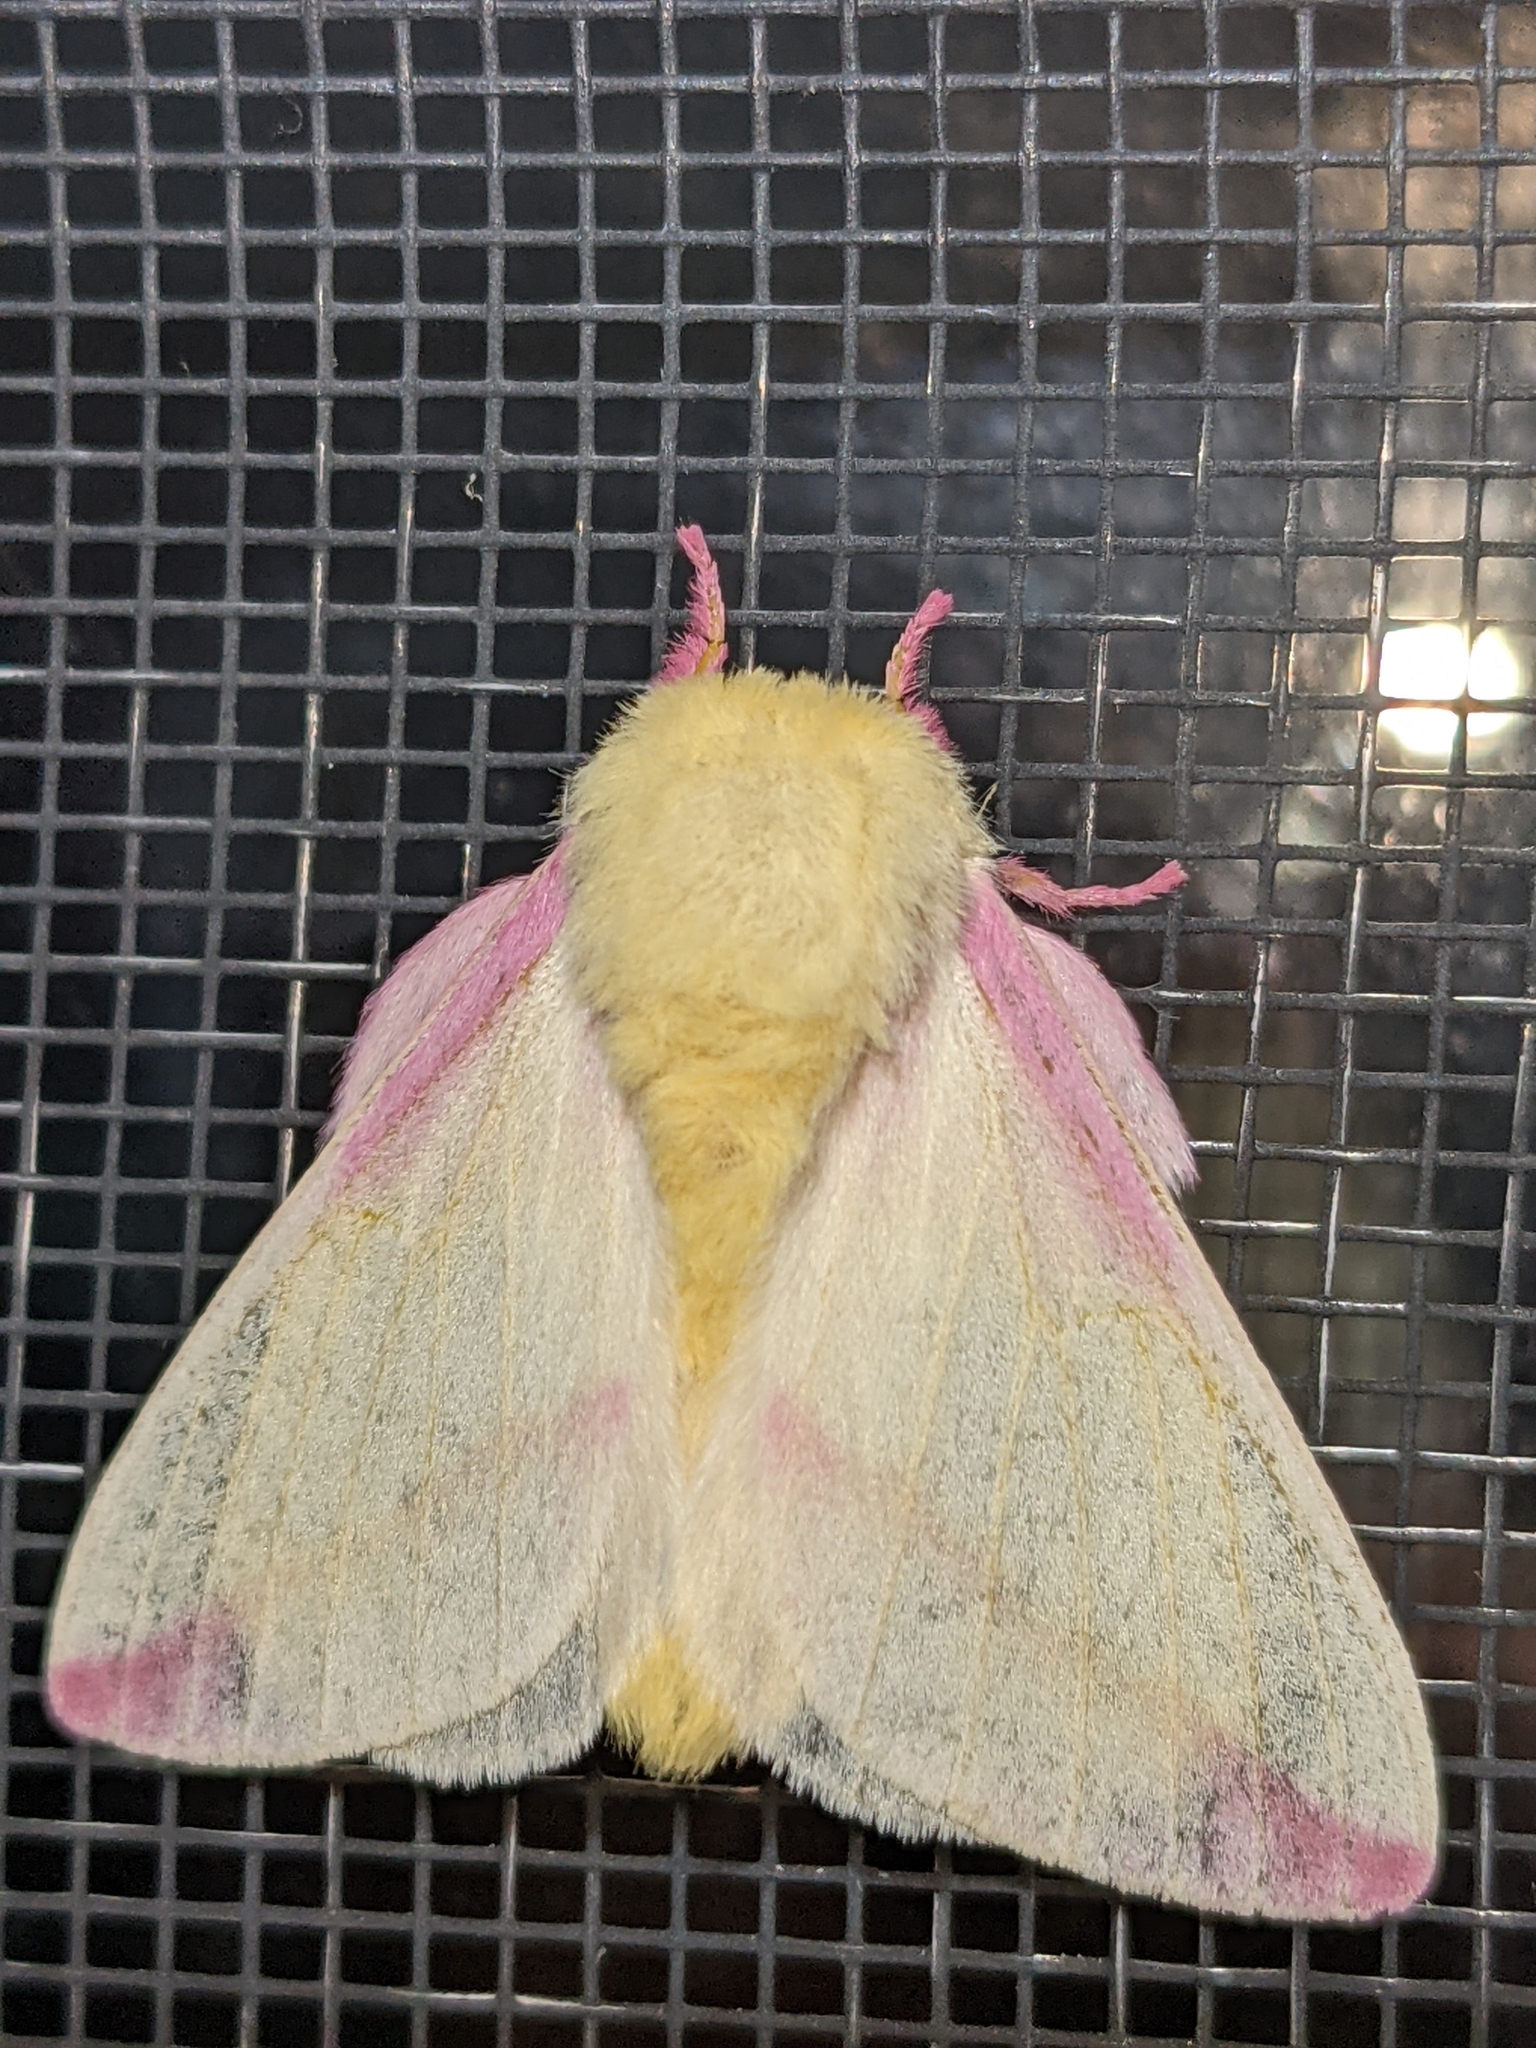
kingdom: Animalia
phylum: Arthropoda
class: Insecta
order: Lepidoptera
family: Saturniidae
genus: Dryocampa
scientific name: Dryocampa rubicunda
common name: Rosy maple moth
